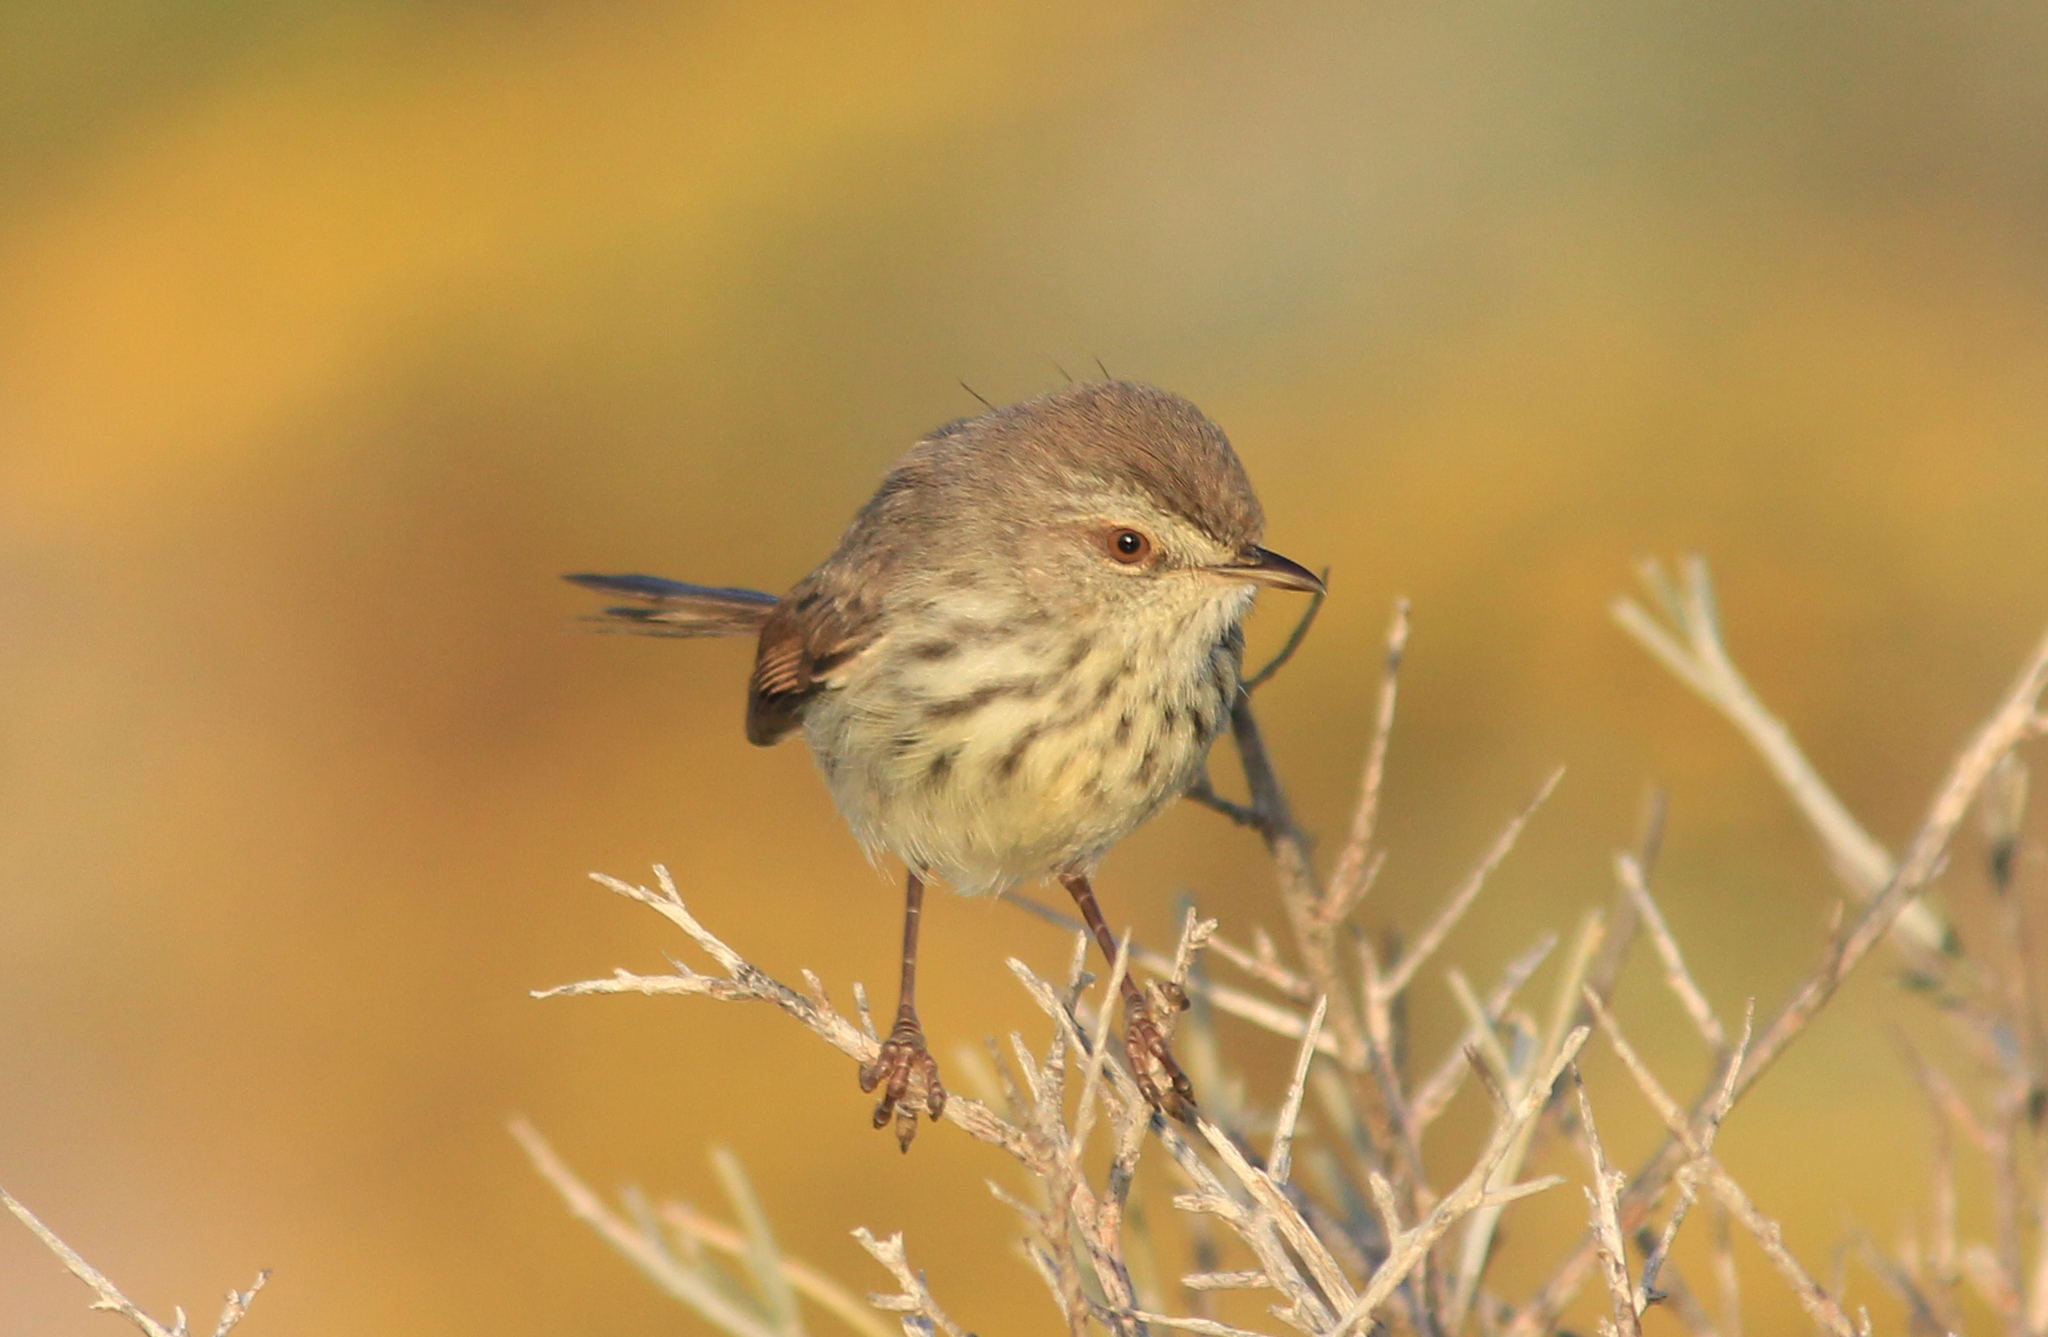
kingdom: Animalia
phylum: Chordata
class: Aves
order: Passeriformes
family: Cisticolidae
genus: Prinia
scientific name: Prinia maculosa
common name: Karoo prinia
